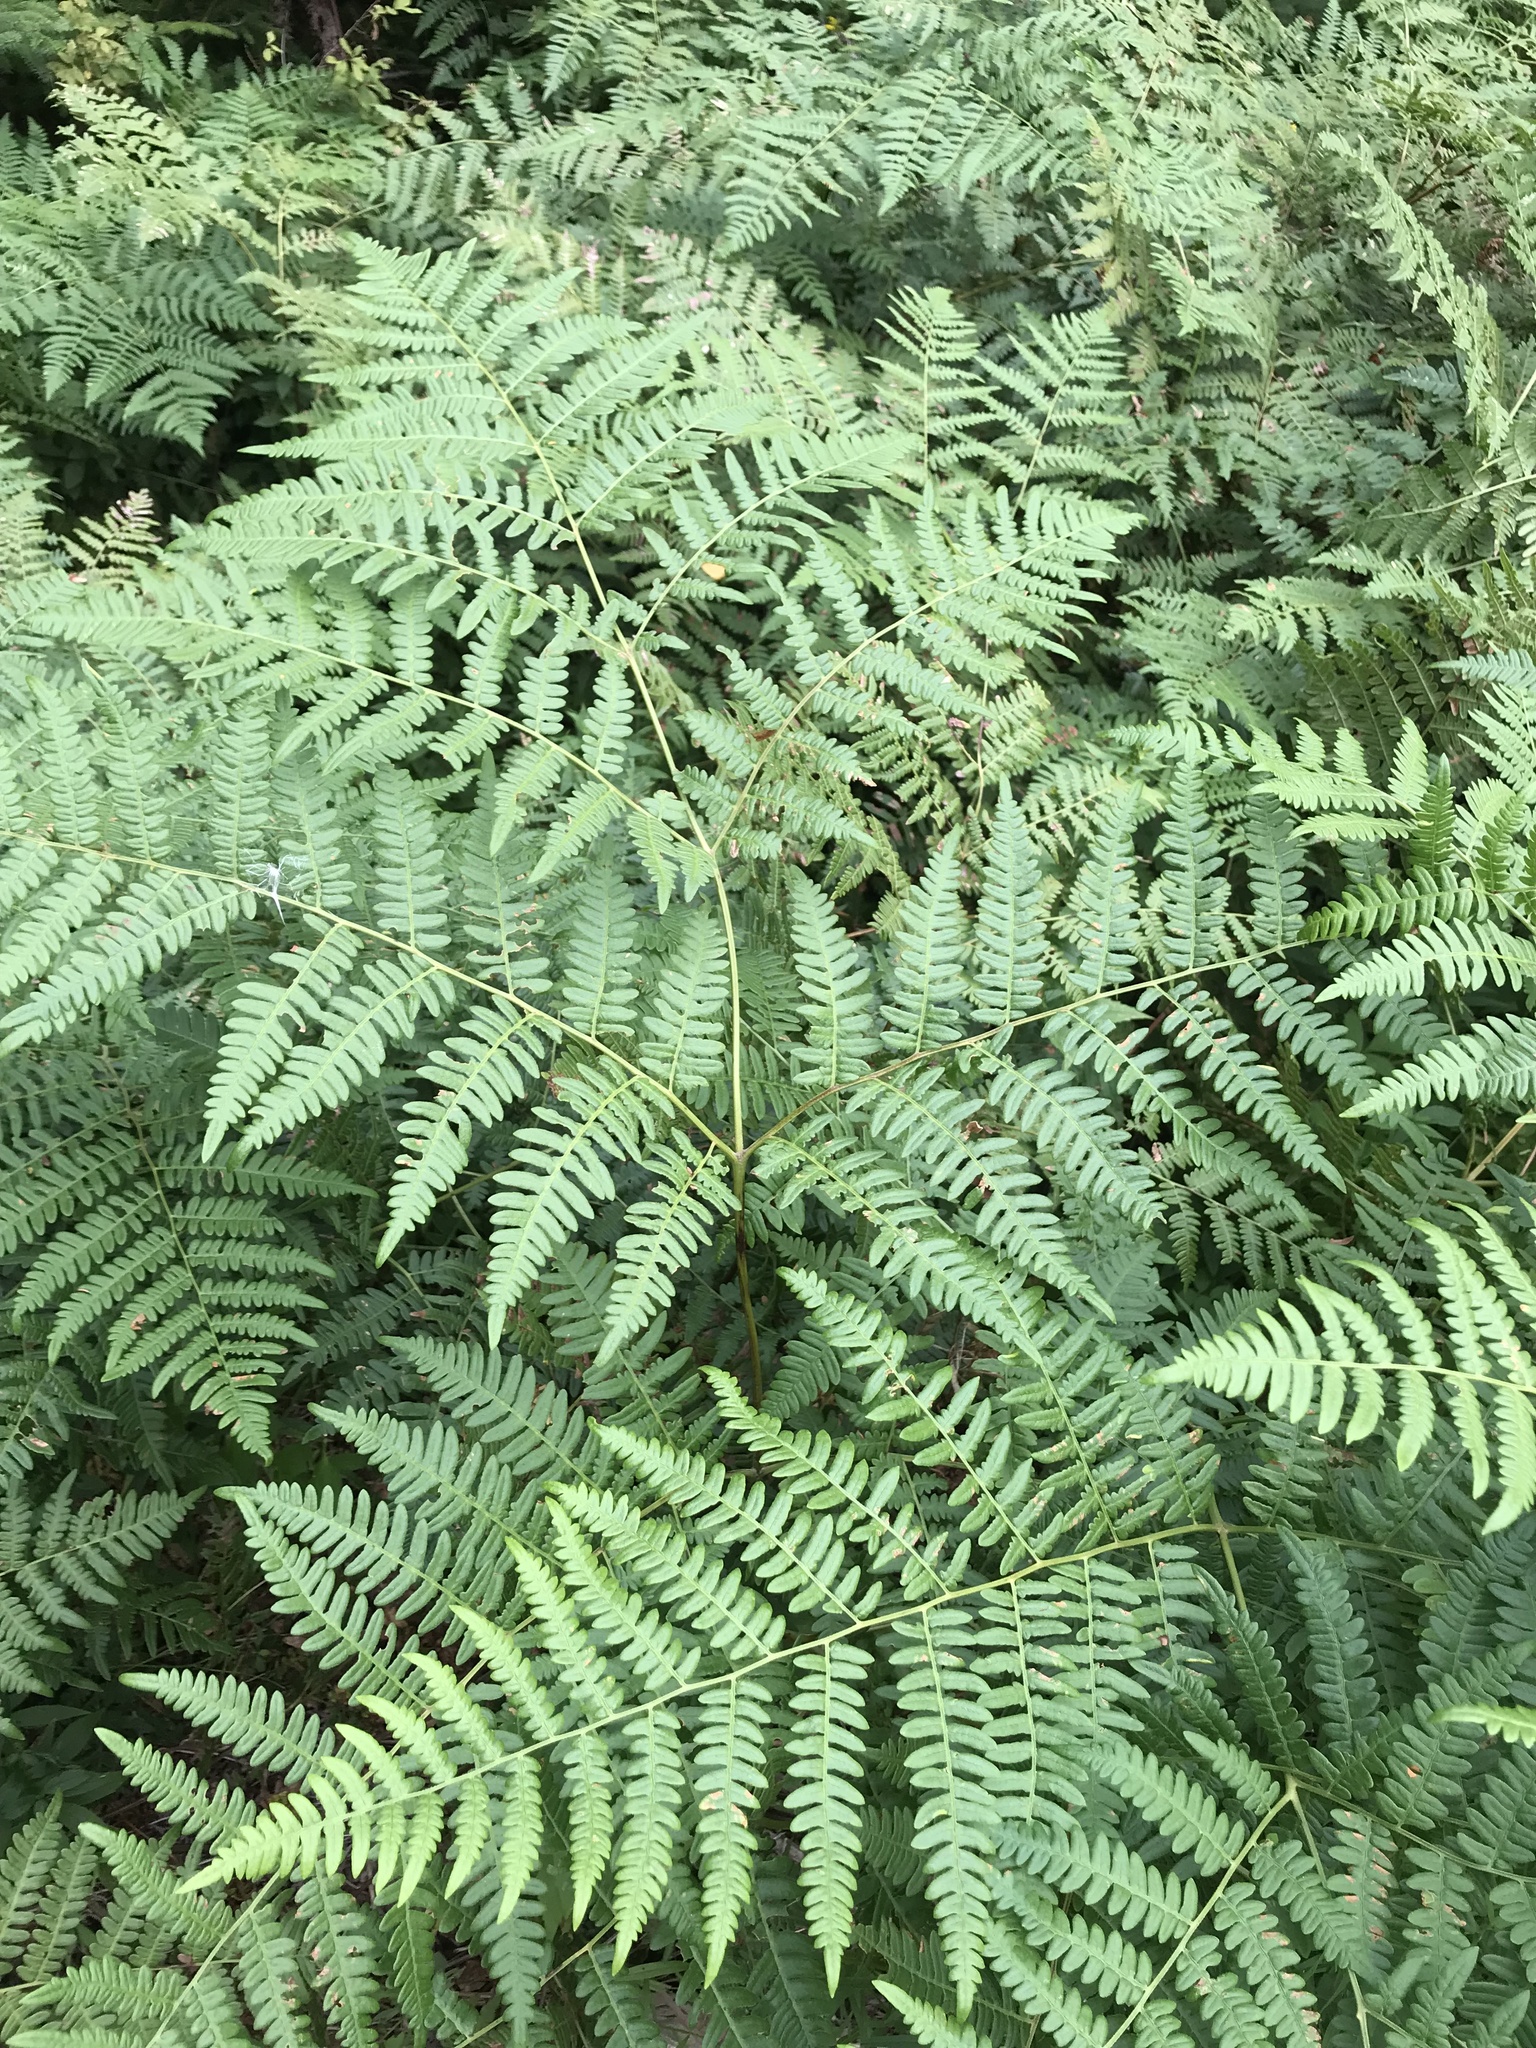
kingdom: Plantae
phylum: Tracheophyta
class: Polypodiopsida
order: Polypodiales
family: Dennstaedtiaceae
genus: Pteridium
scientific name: Pteridium aquilinum
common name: Bracken
